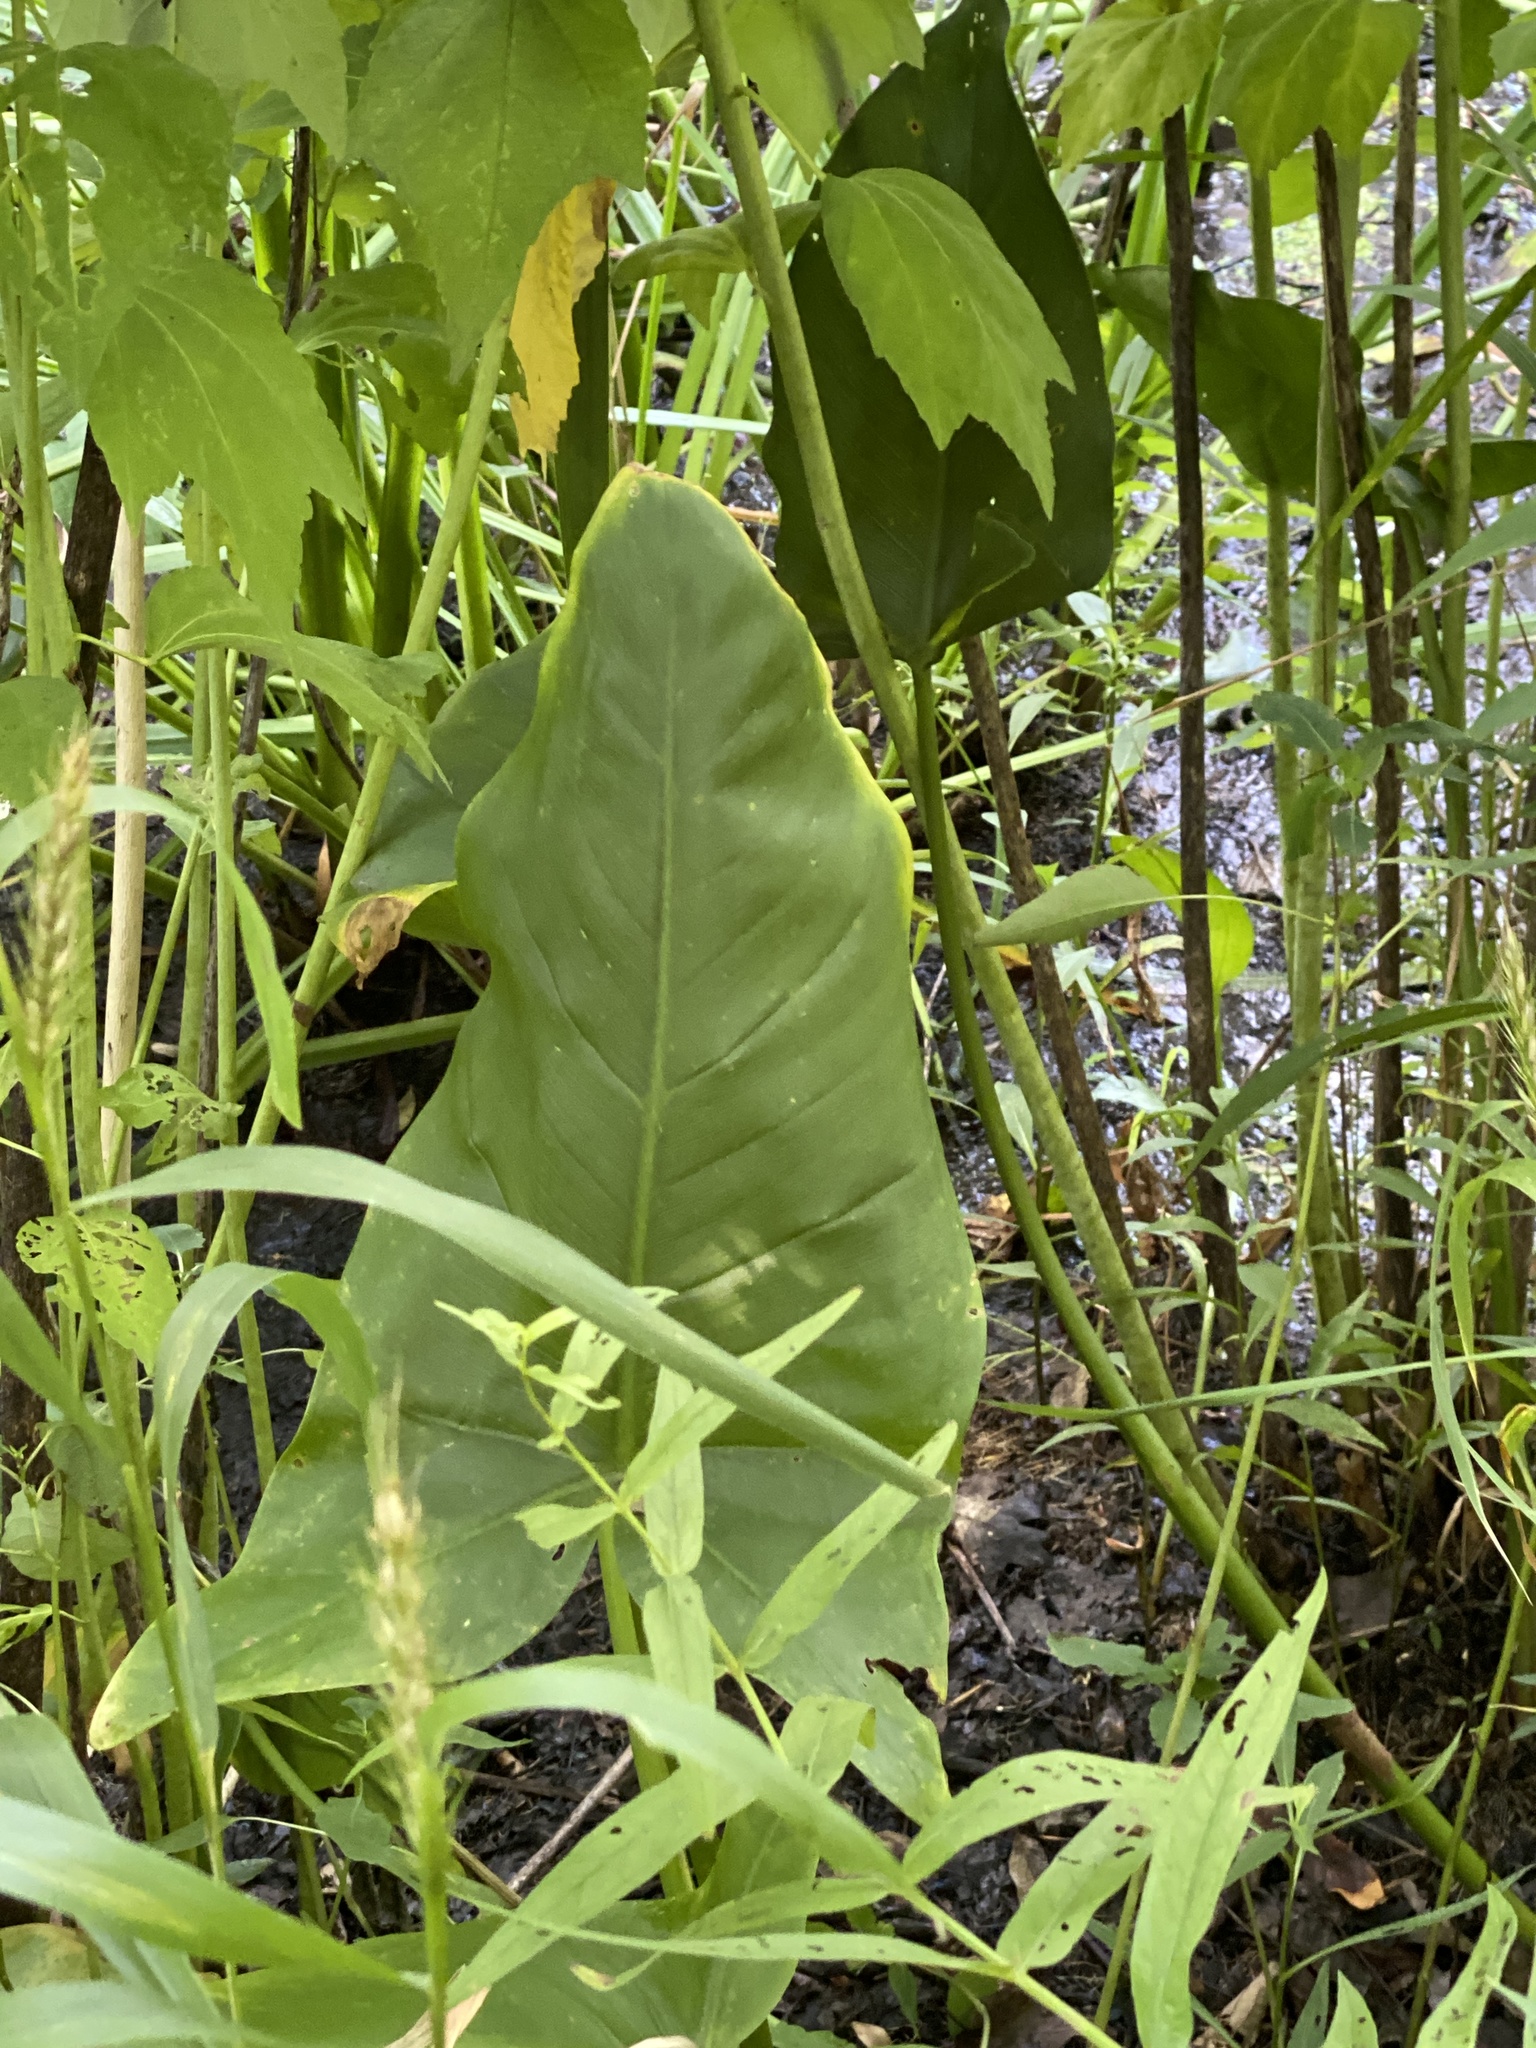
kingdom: Plantae
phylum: Tracheophyta
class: Liliopsida
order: Alismatales
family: Araceae
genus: Peltandra
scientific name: Peltandra virginica
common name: Arrow arum
